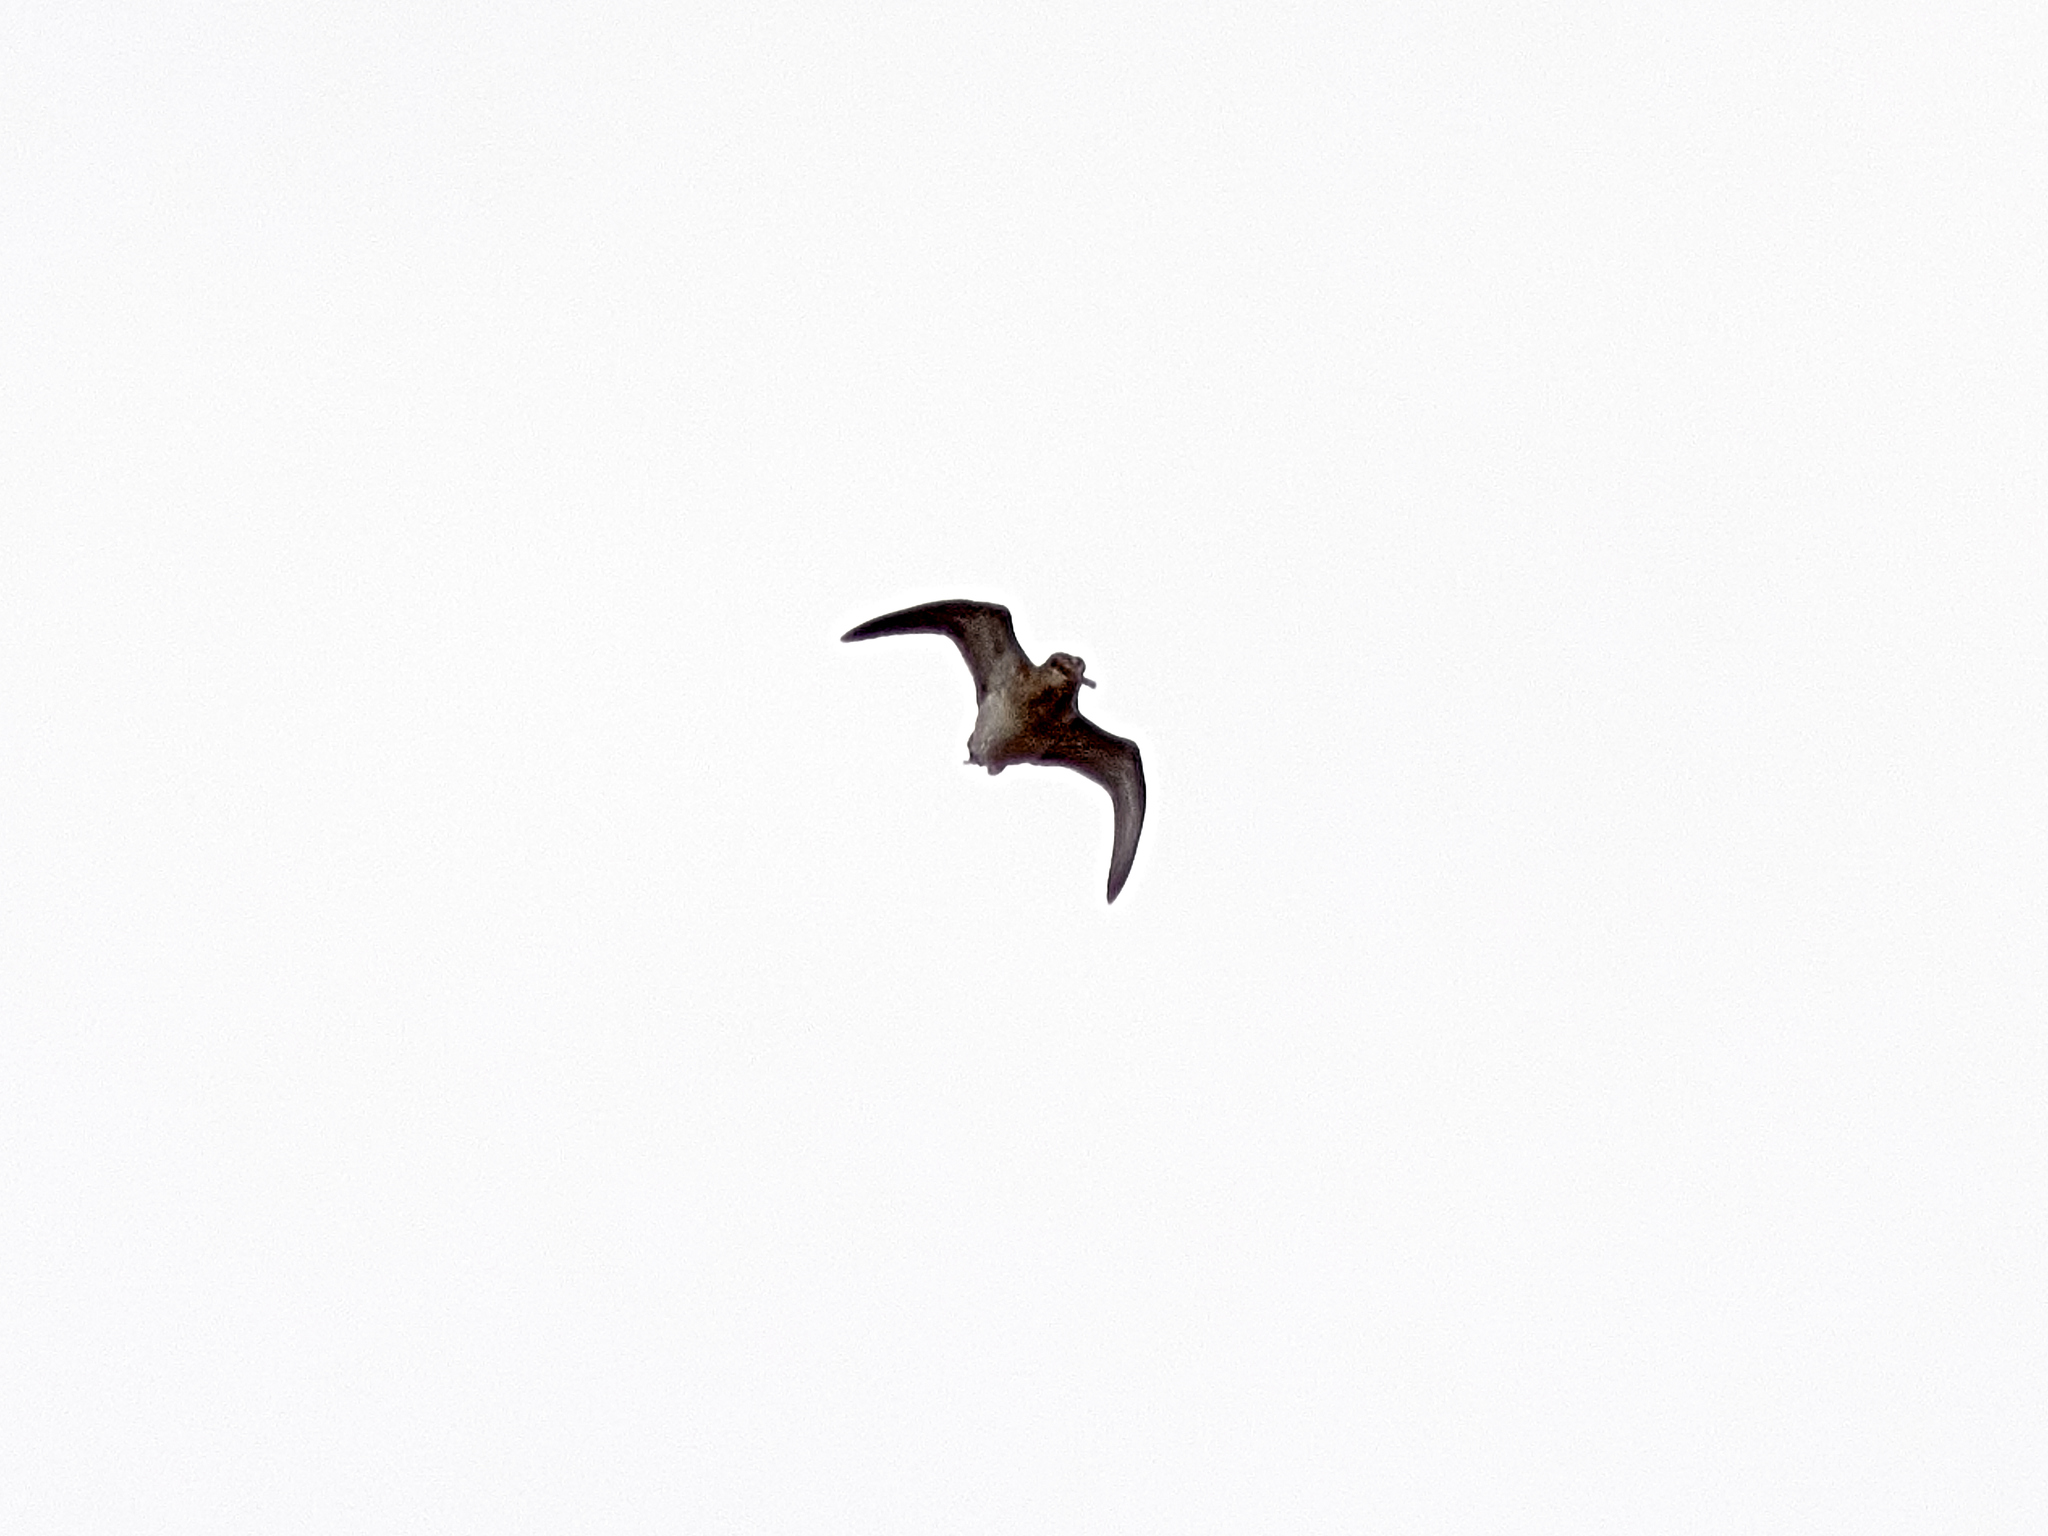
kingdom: Animalia
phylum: Chordata
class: Aves
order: Charadriiformes
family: Scolopacidae
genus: Gallinago
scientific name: Gallinago gallinago
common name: Common snipe
